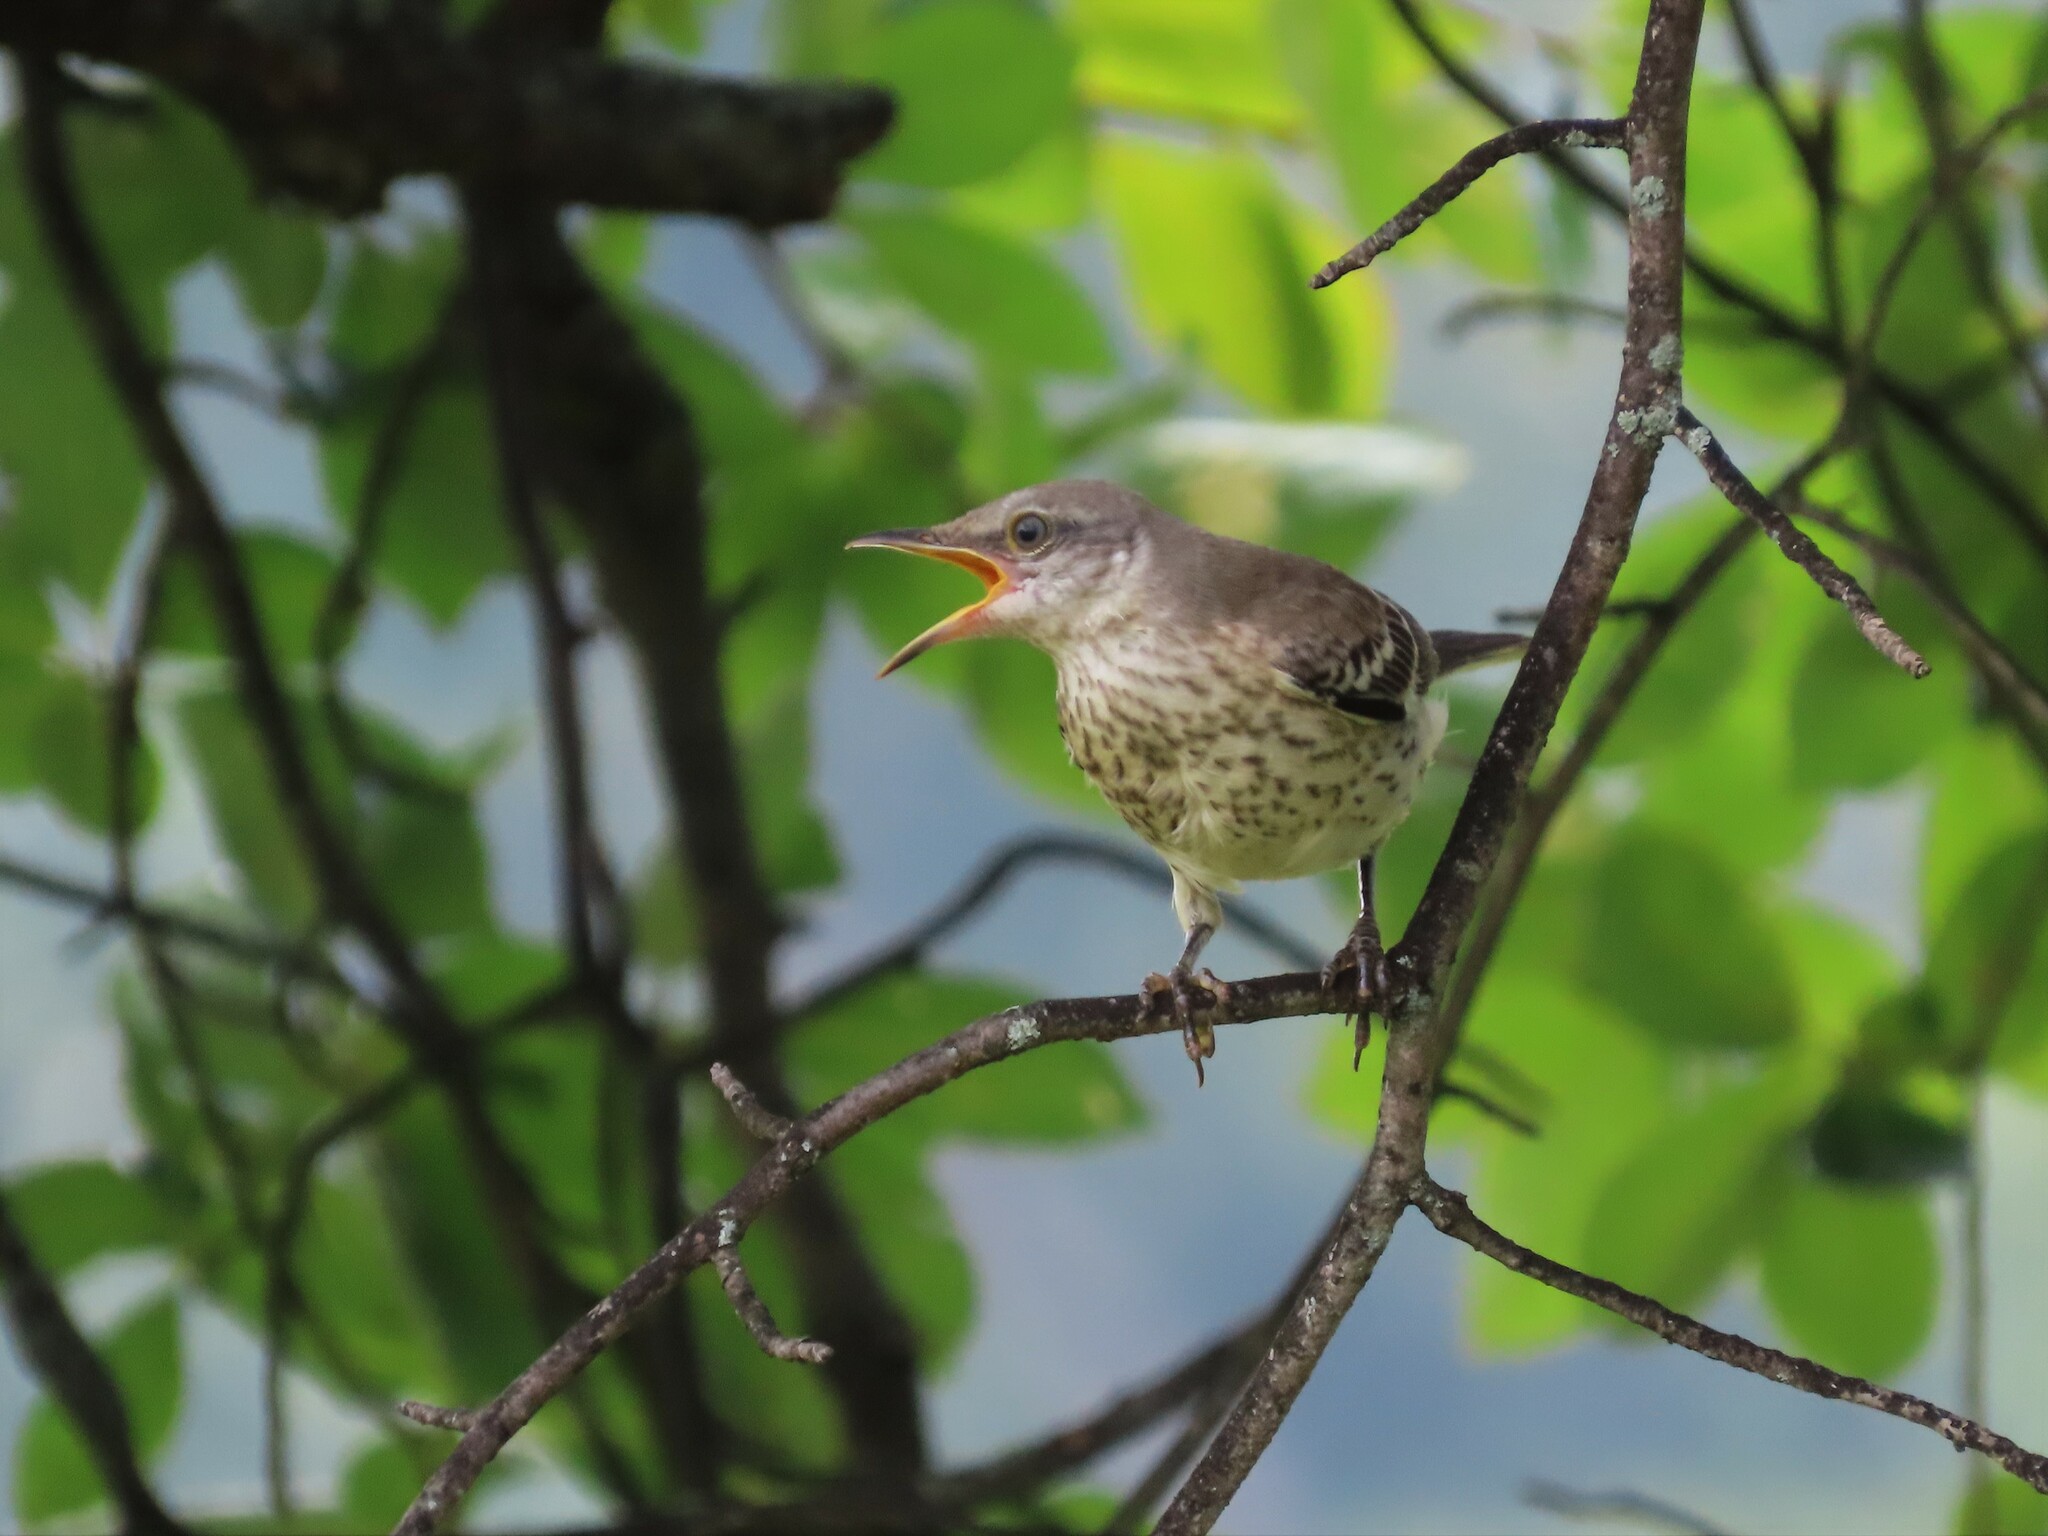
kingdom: Animalia
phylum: Chordata
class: Aves
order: Passeriformes
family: Mimidae
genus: Mimus
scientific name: Mimus polyglottos
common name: Northern mockingbird
